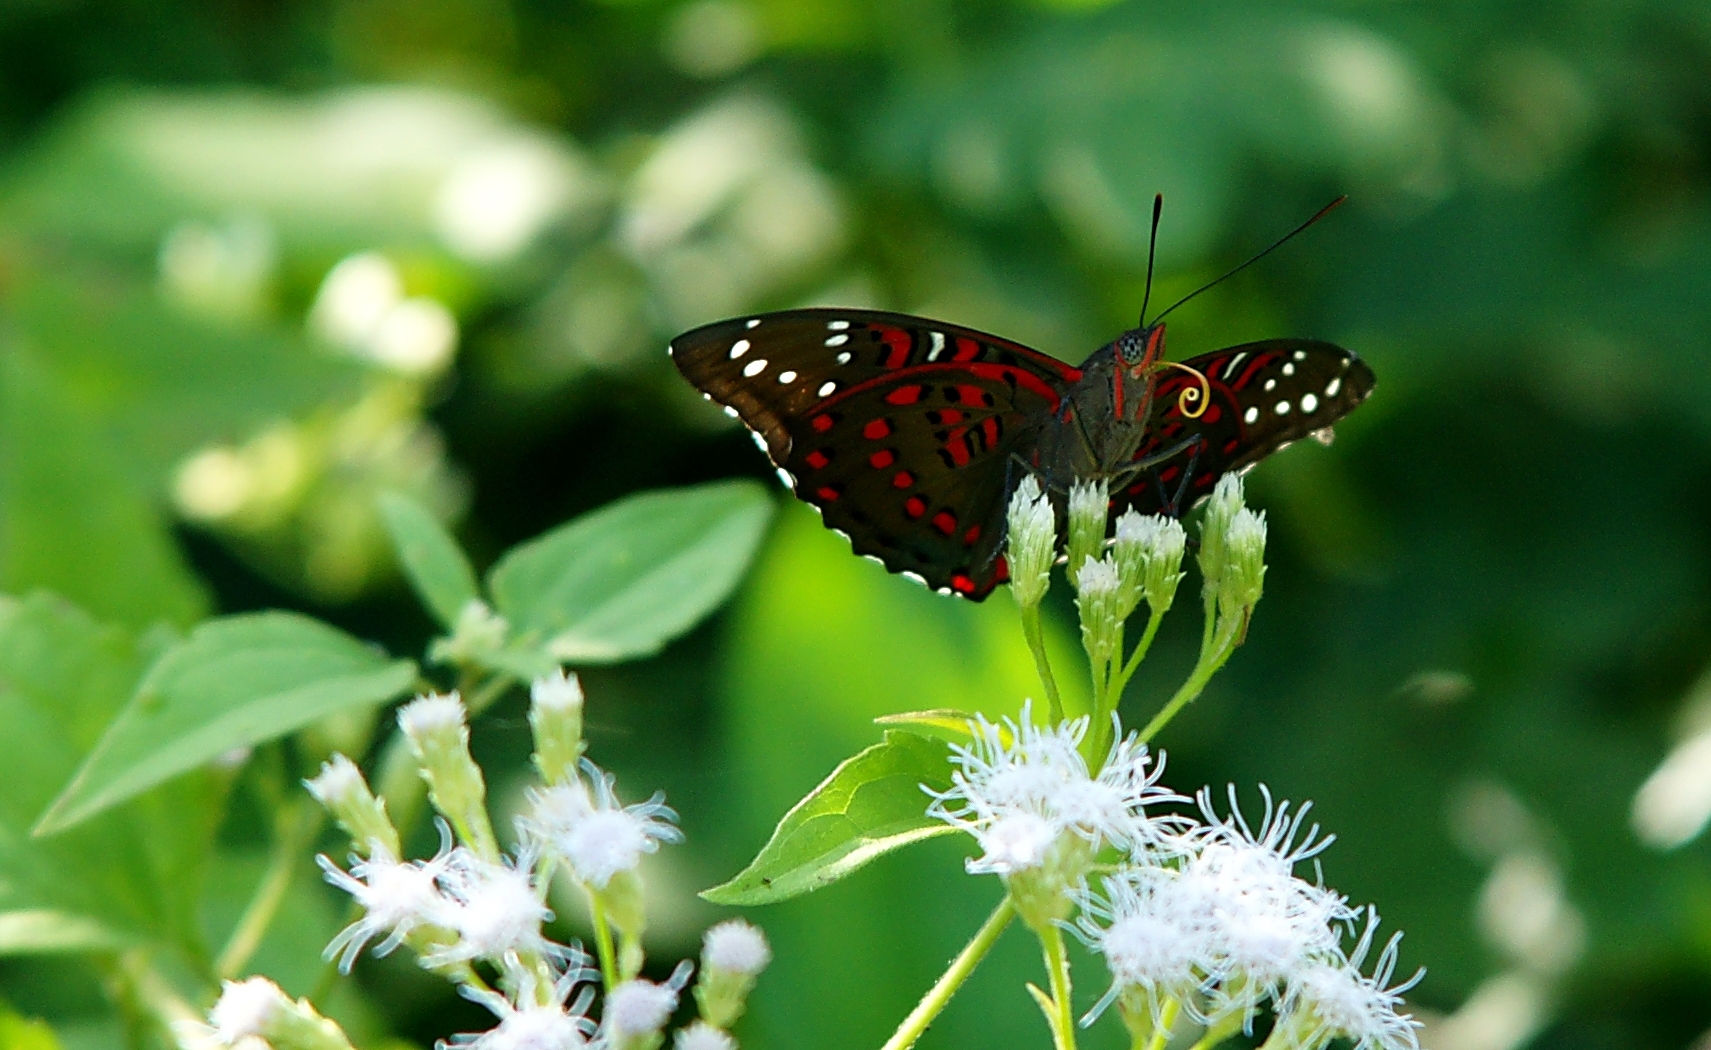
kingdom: Animalia
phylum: Arthropoda
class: Insecta
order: Lepidoptera
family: Nymphalidae
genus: Euthalia
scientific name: Euthalia lubentina
